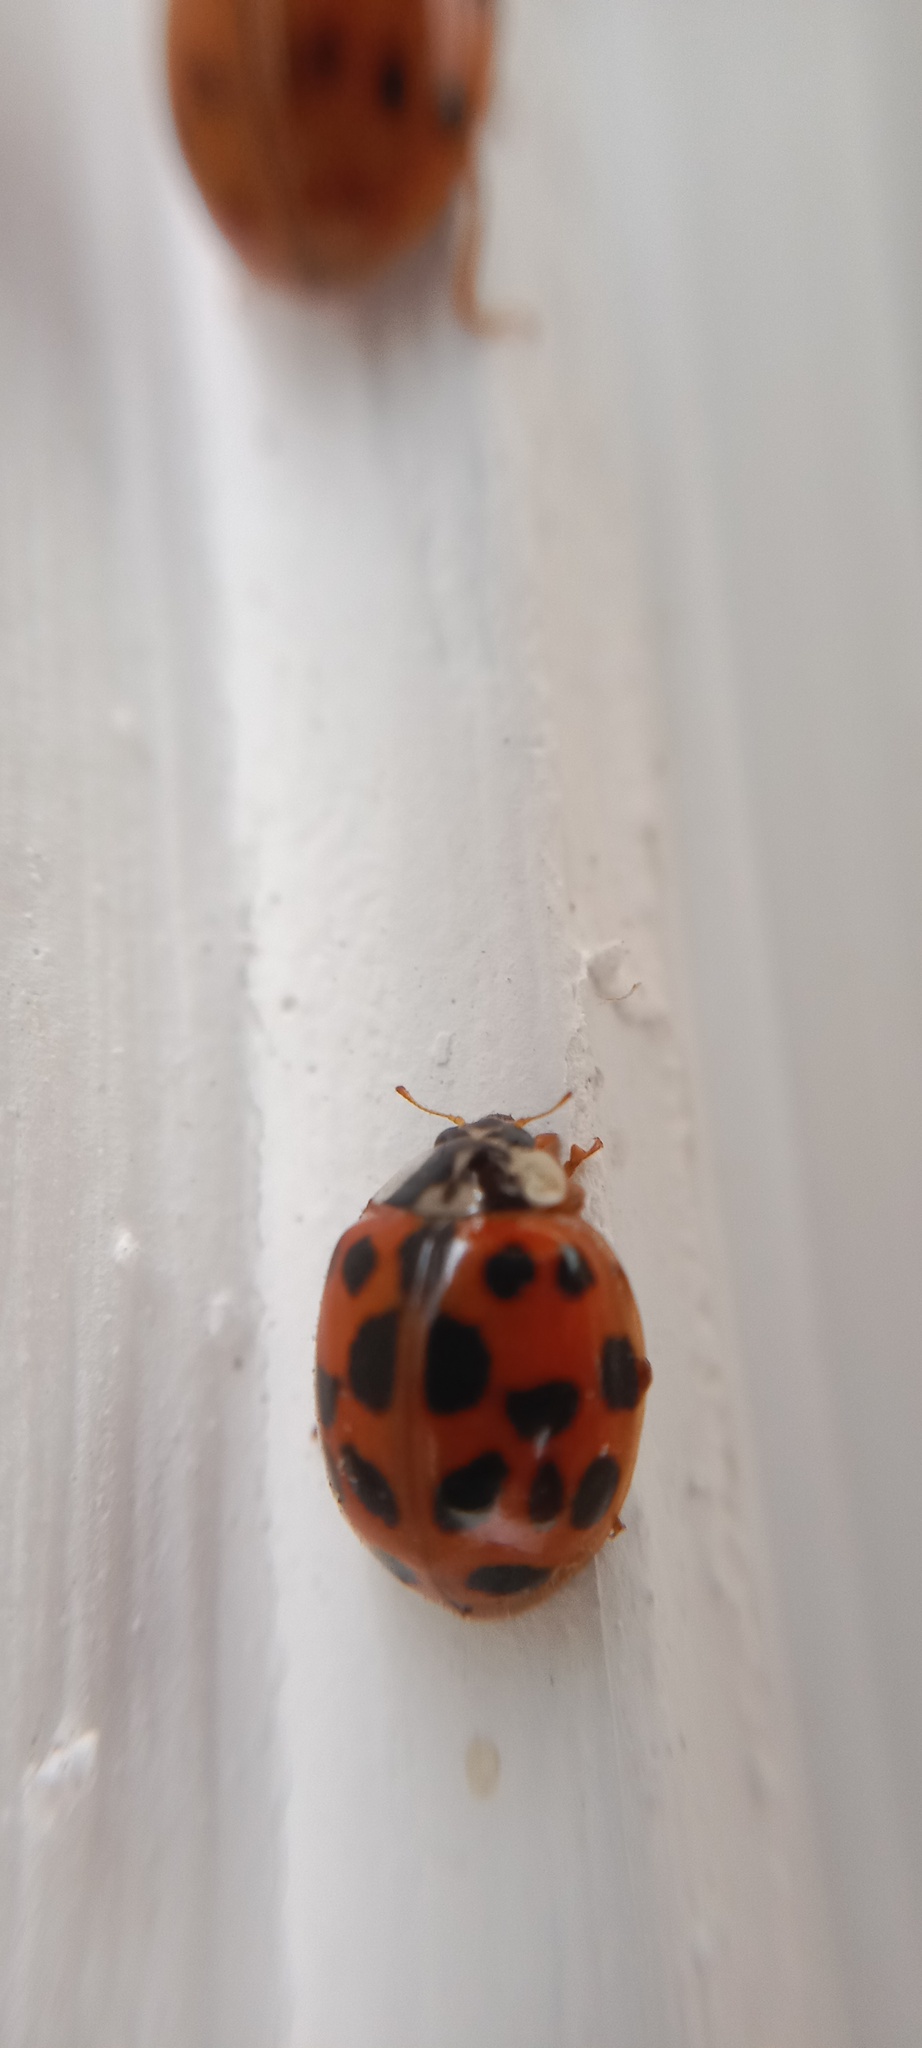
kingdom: Animalia
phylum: Arthropoda
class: Insecta
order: Coleoptera
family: Coccinellidae
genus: Harmonia
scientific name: Harmonia axyridis
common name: Harlequin ladybird
